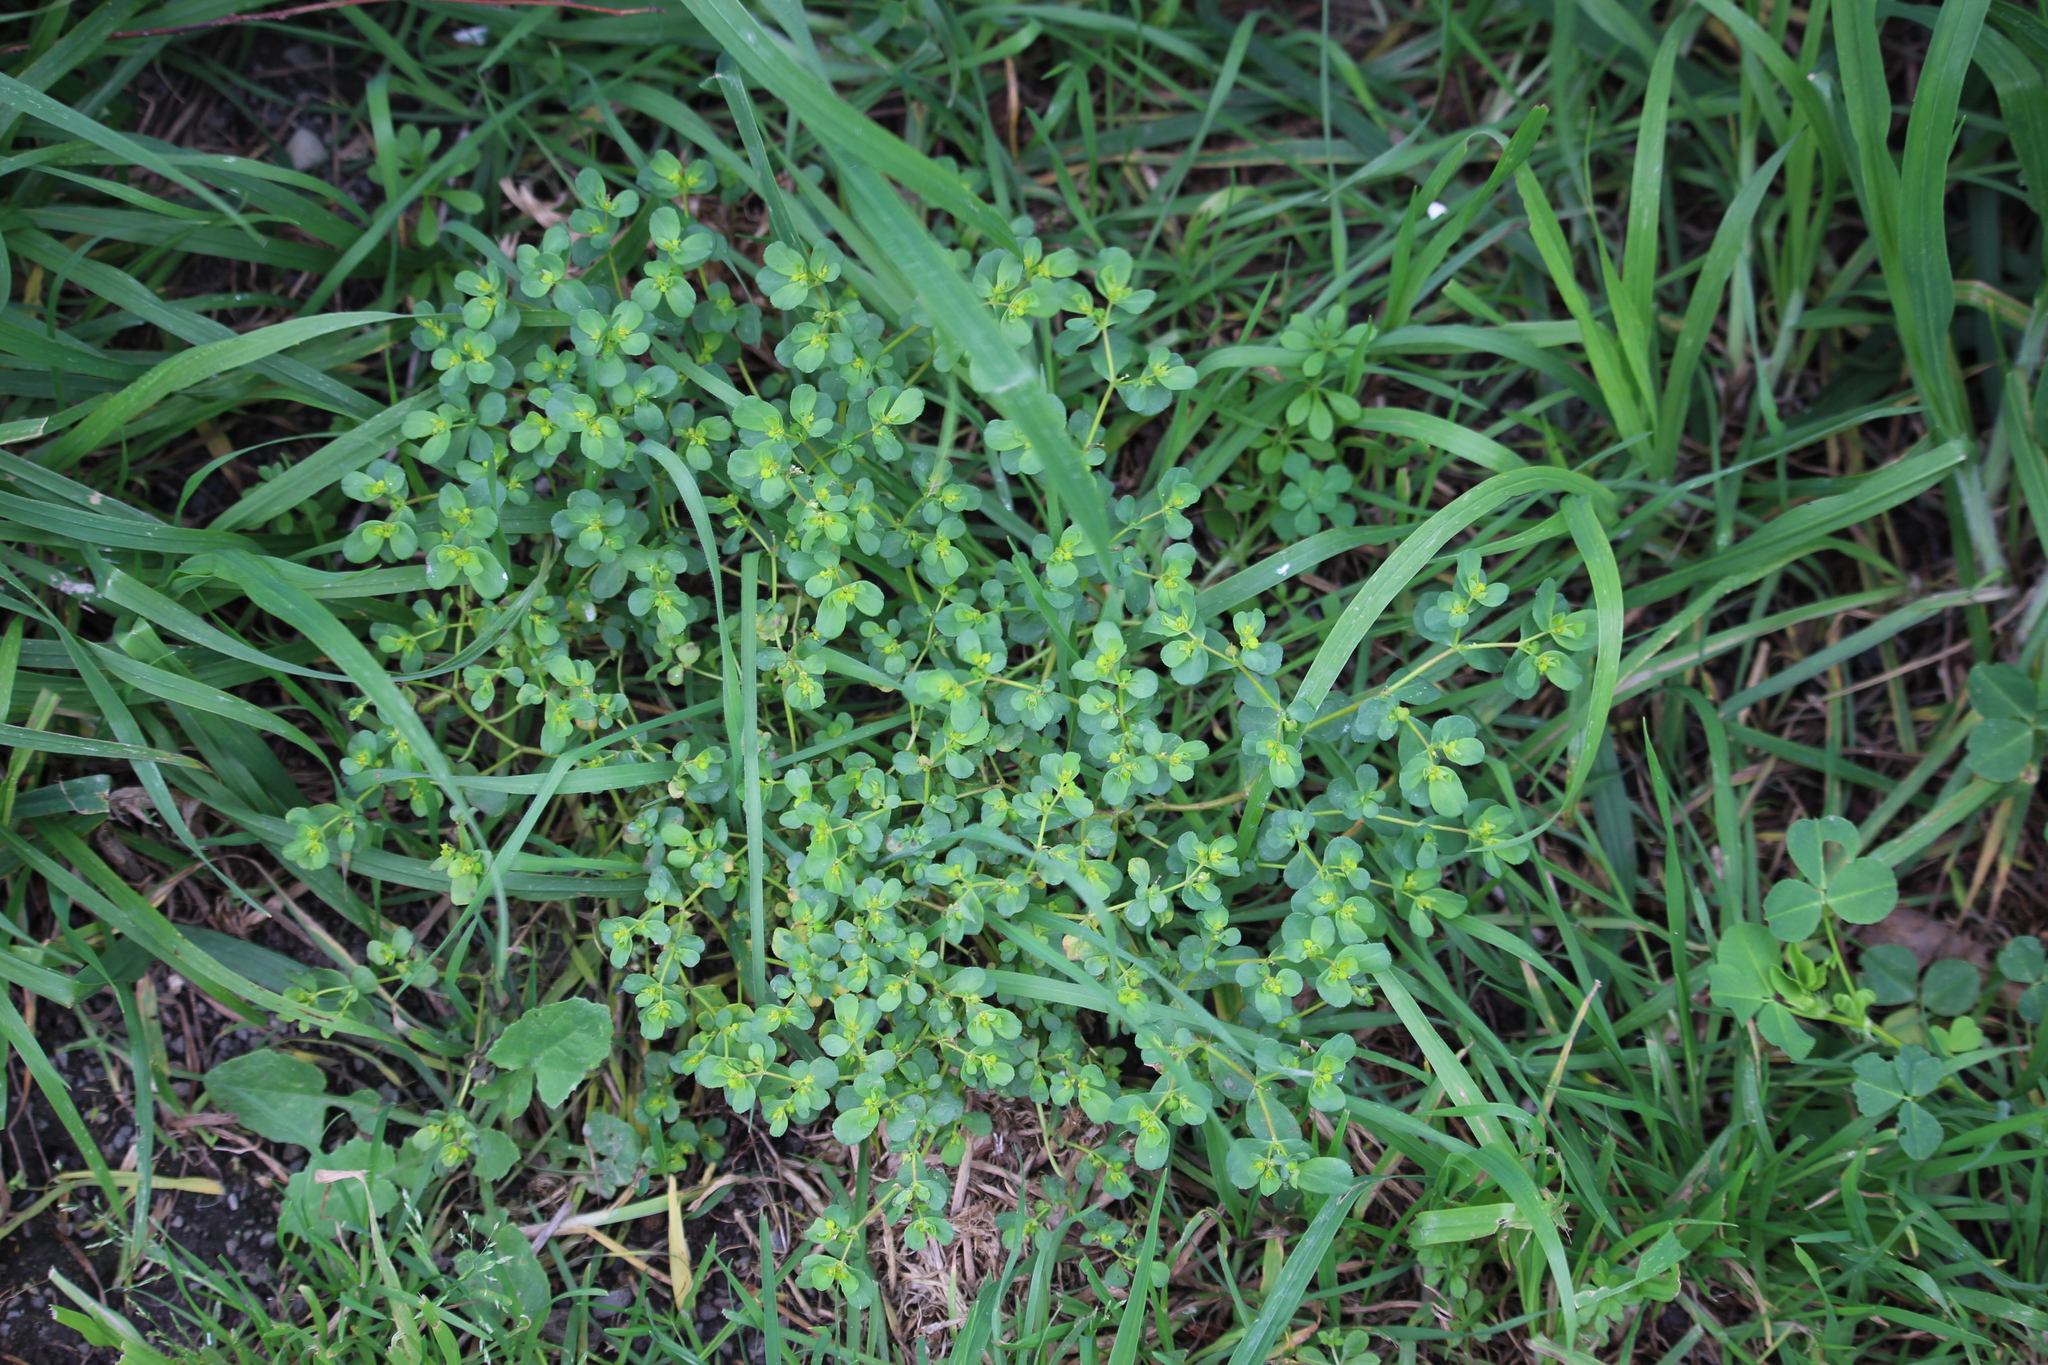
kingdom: Plantae
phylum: Tracheophyta
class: Magnoliopsida
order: Malpighiales
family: Euphorbiaceae
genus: Euphorbia
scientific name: Euphorbia helioscopia
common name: Sun spurge
